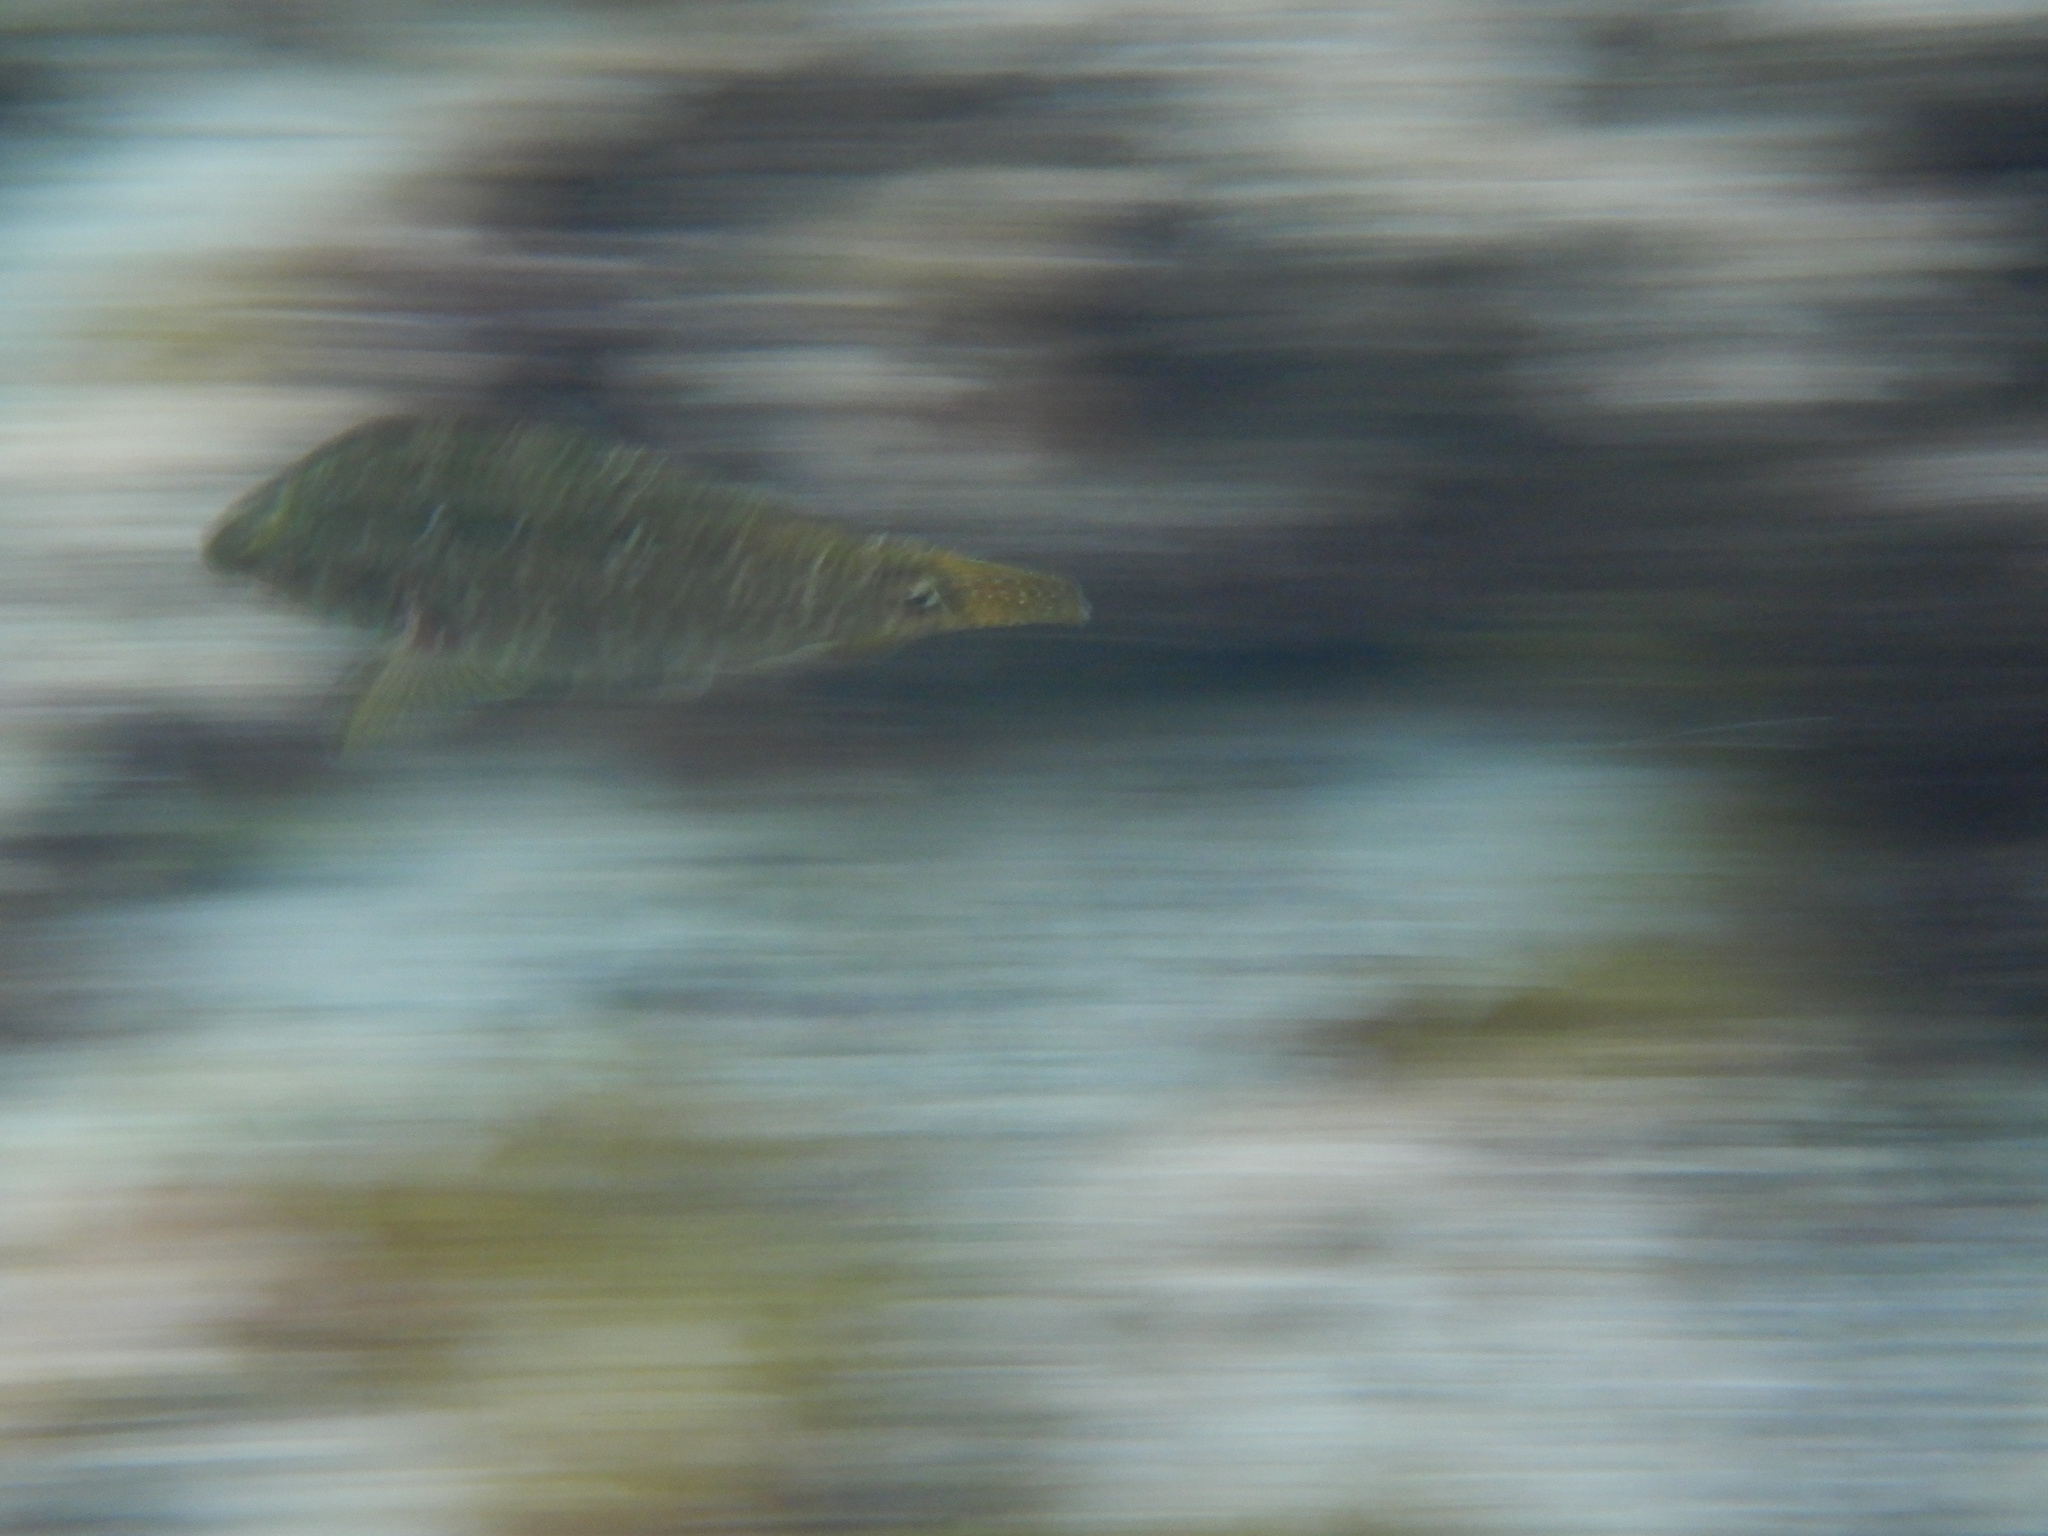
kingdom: Animalia
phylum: Chordata
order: Perciformes
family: Labridae
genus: Symphodus
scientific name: Symphodus trutta
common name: Emerald wrasse
